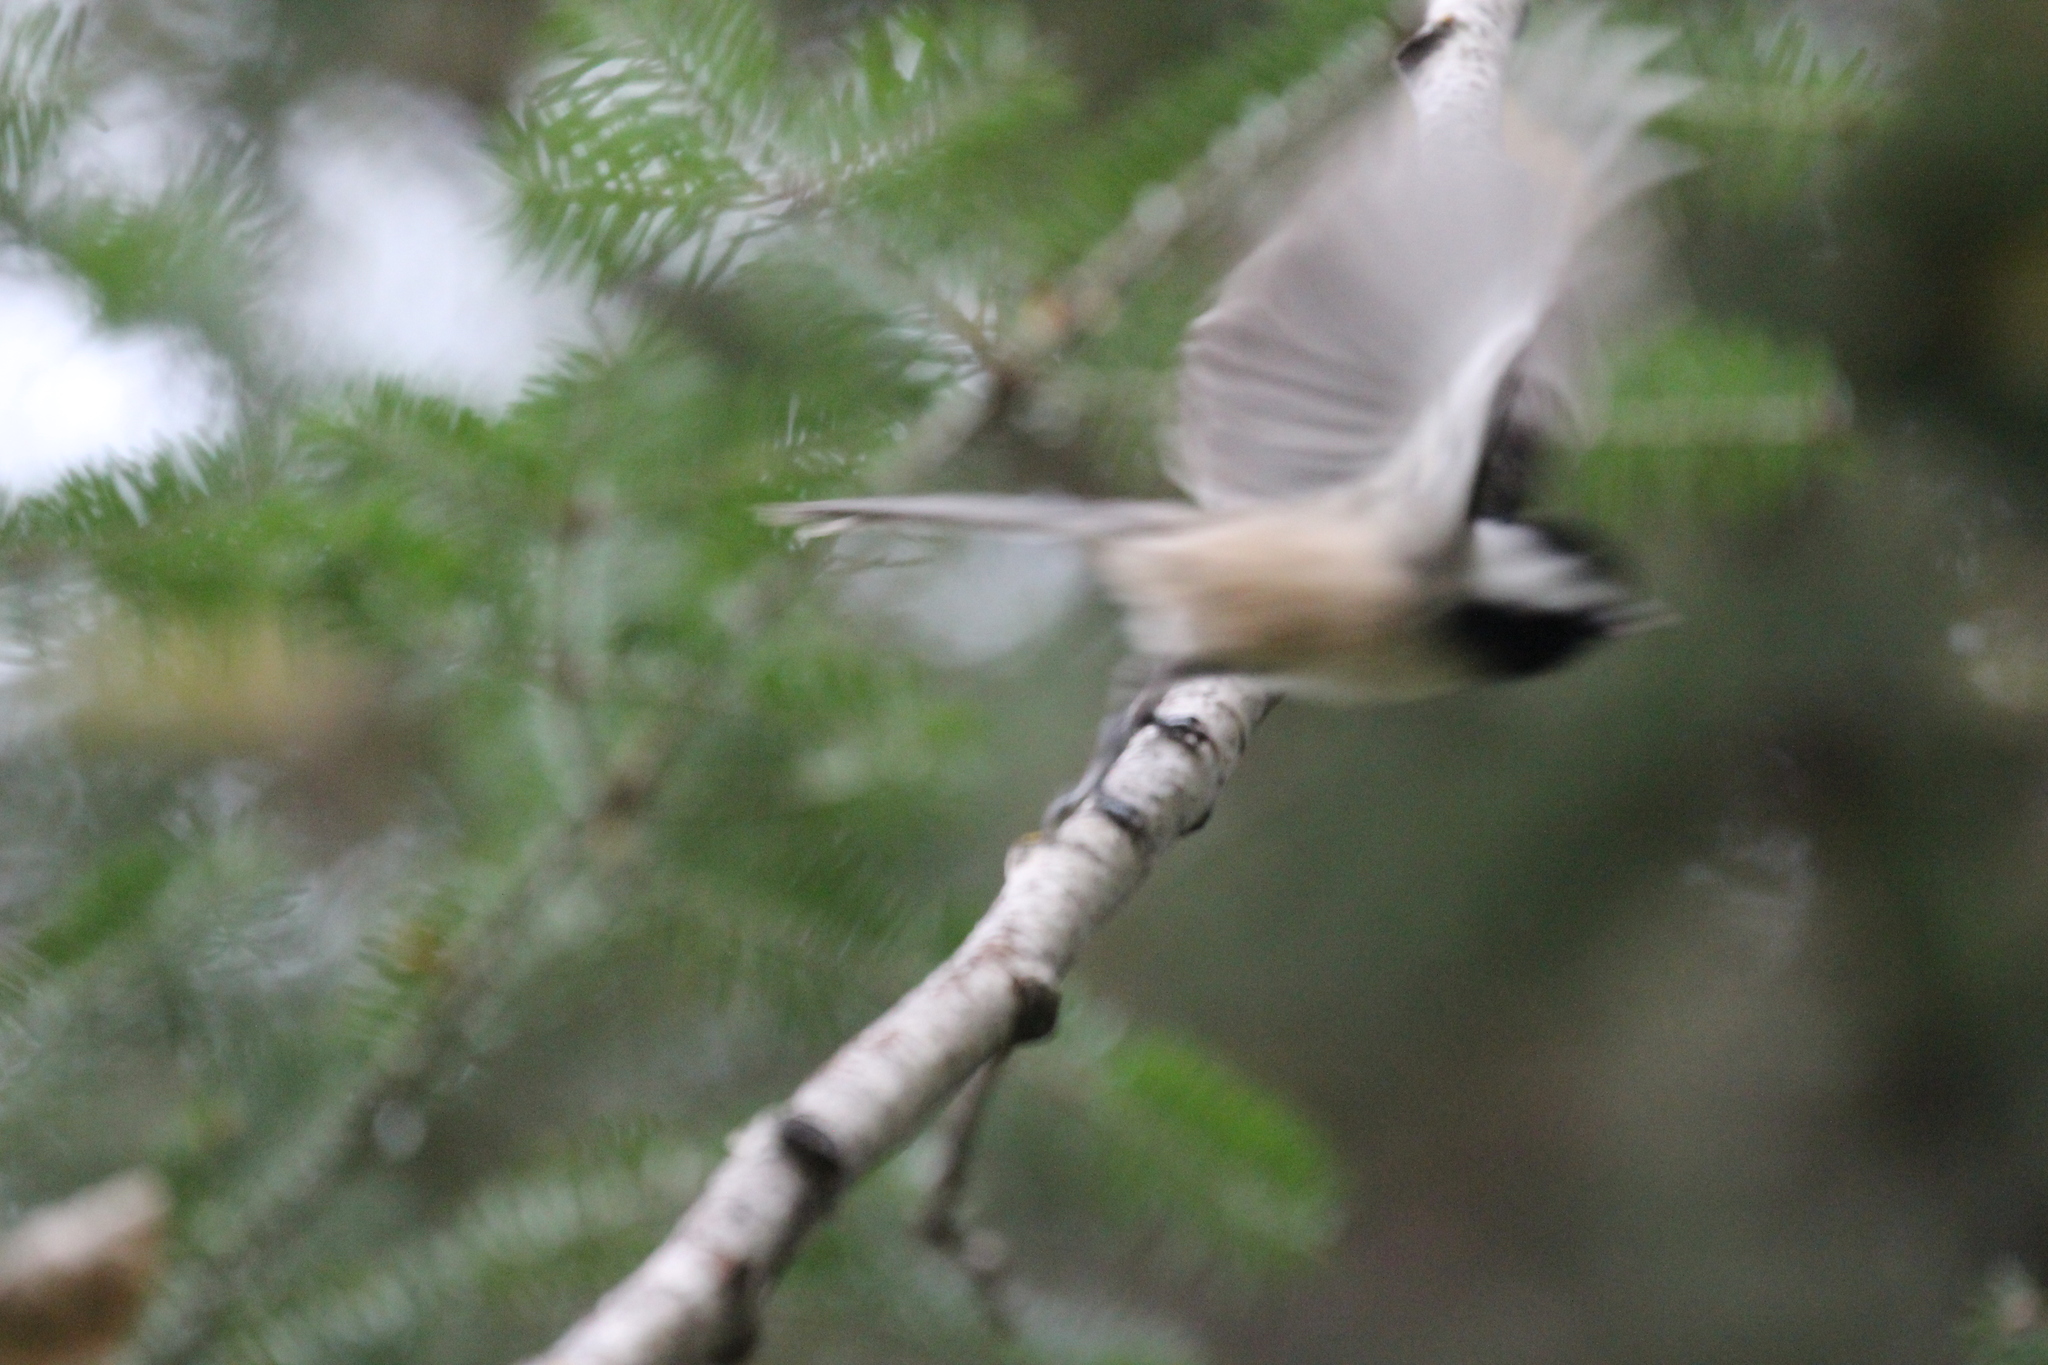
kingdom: Animalia
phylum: Chordata
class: Aves
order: Passeriformes
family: Paridae
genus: Poecile
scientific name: Poecile atricapillus
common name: Black-capped chickadee
